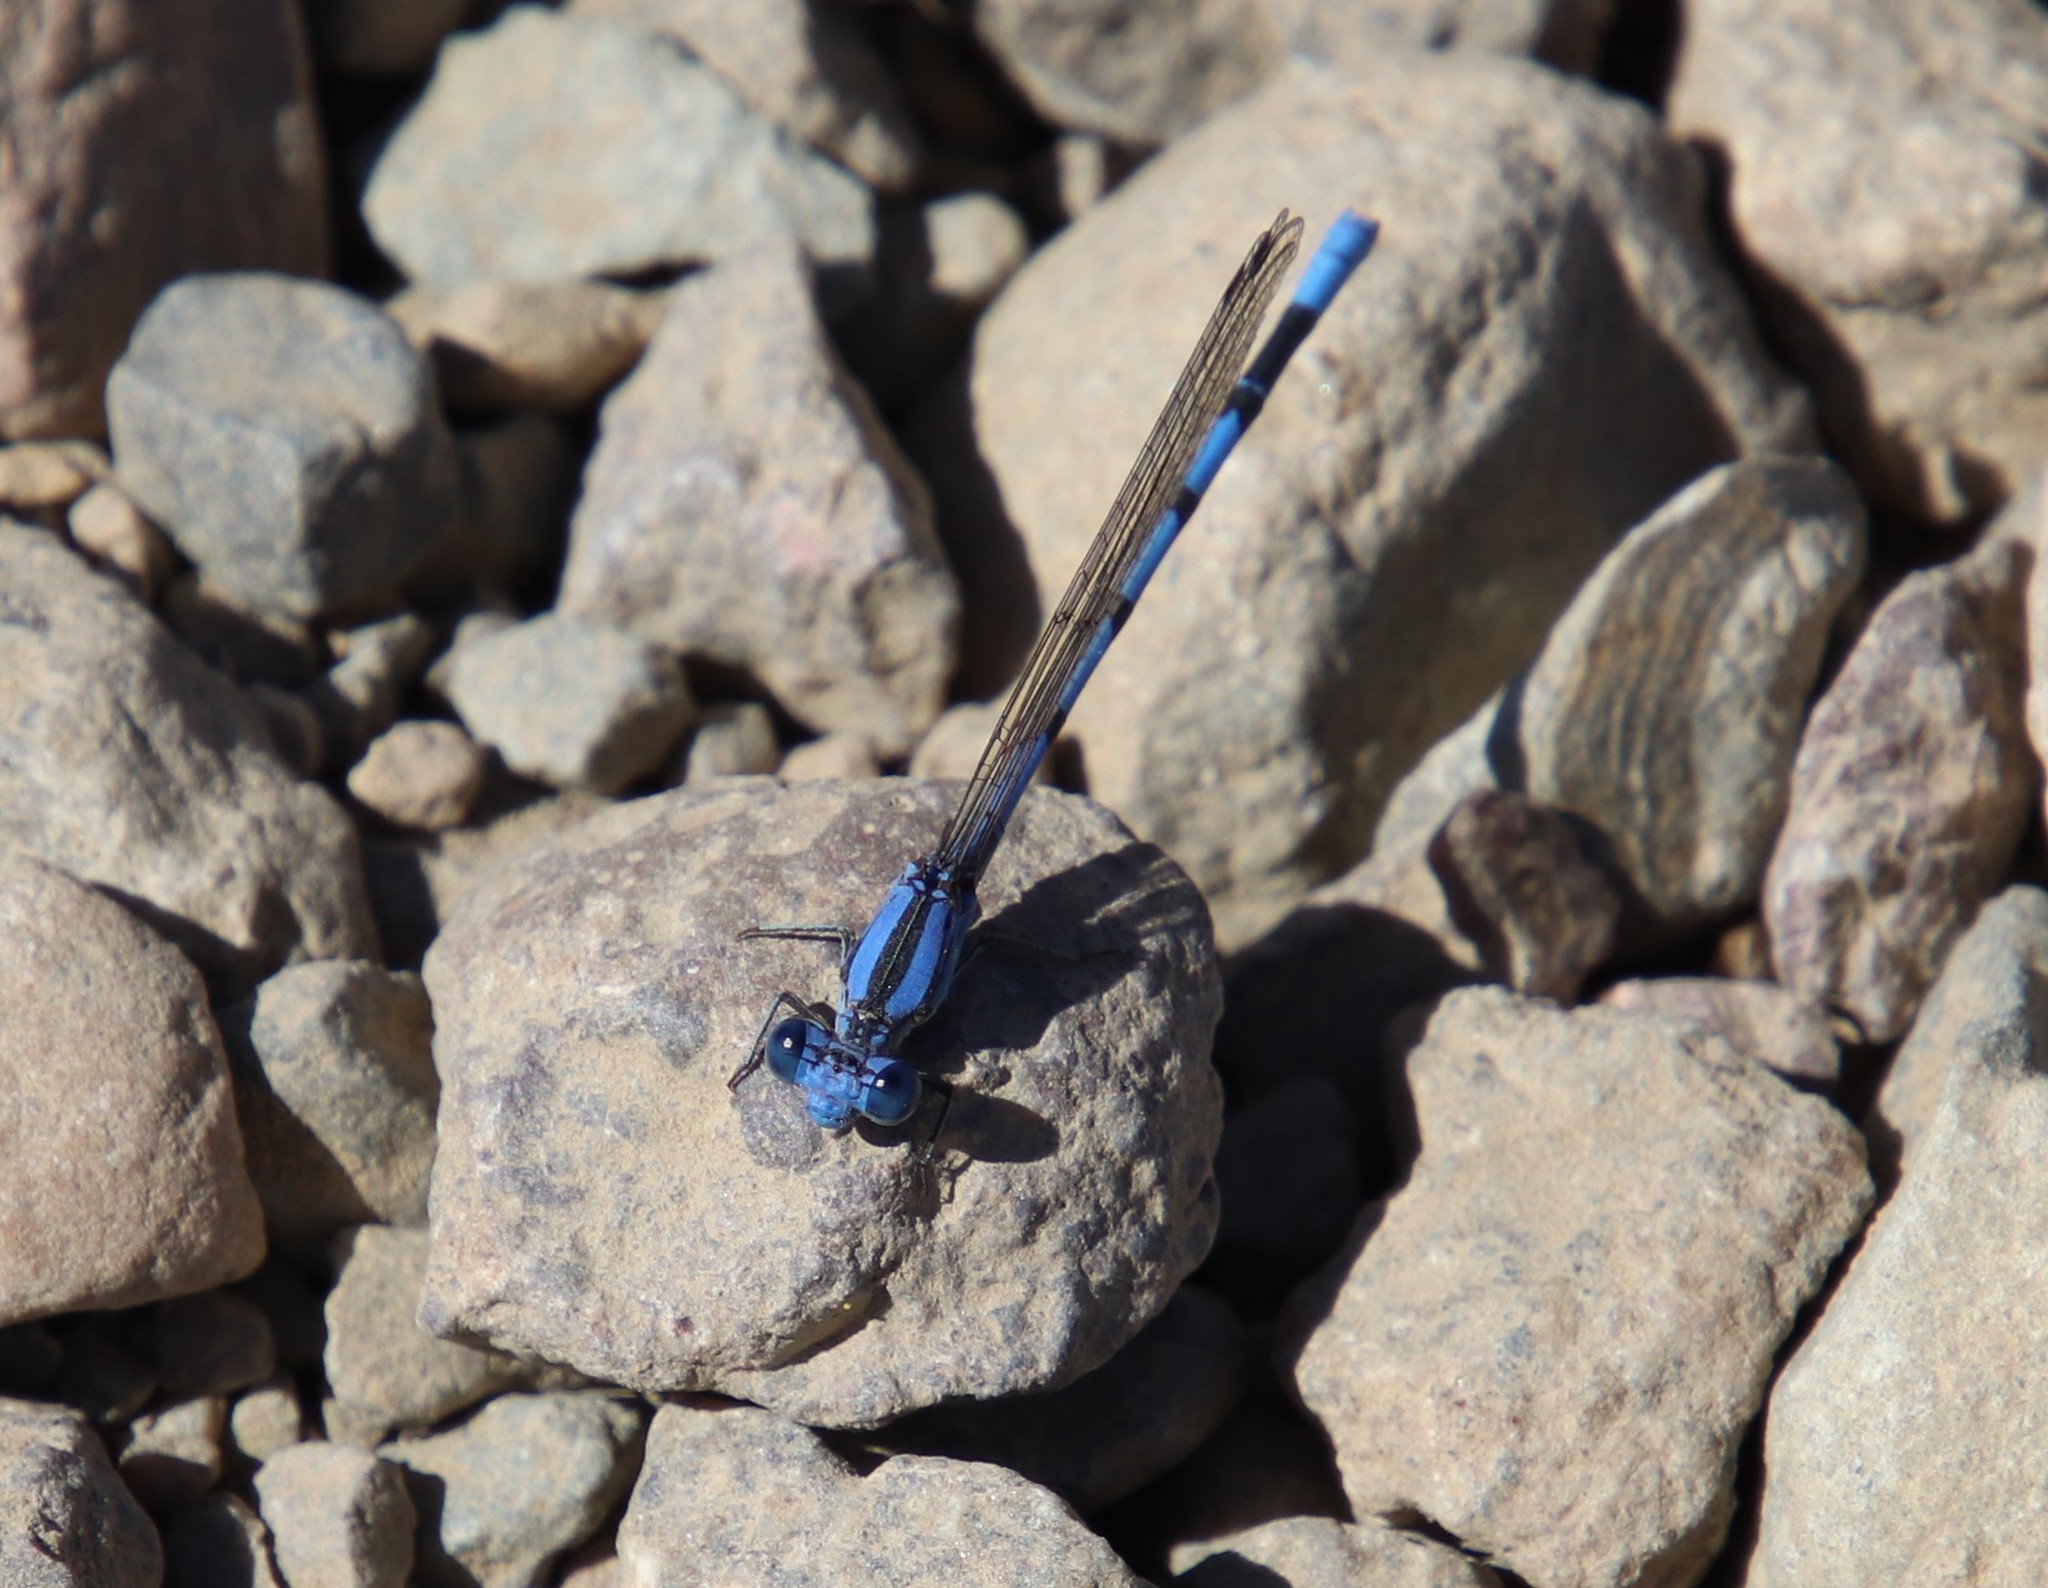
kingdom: Animalia
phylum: Arthropoda
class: Insecta
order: Odonata
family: Coenagrionidae
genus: Argia
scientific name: Argia agrioides
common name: California dancer
